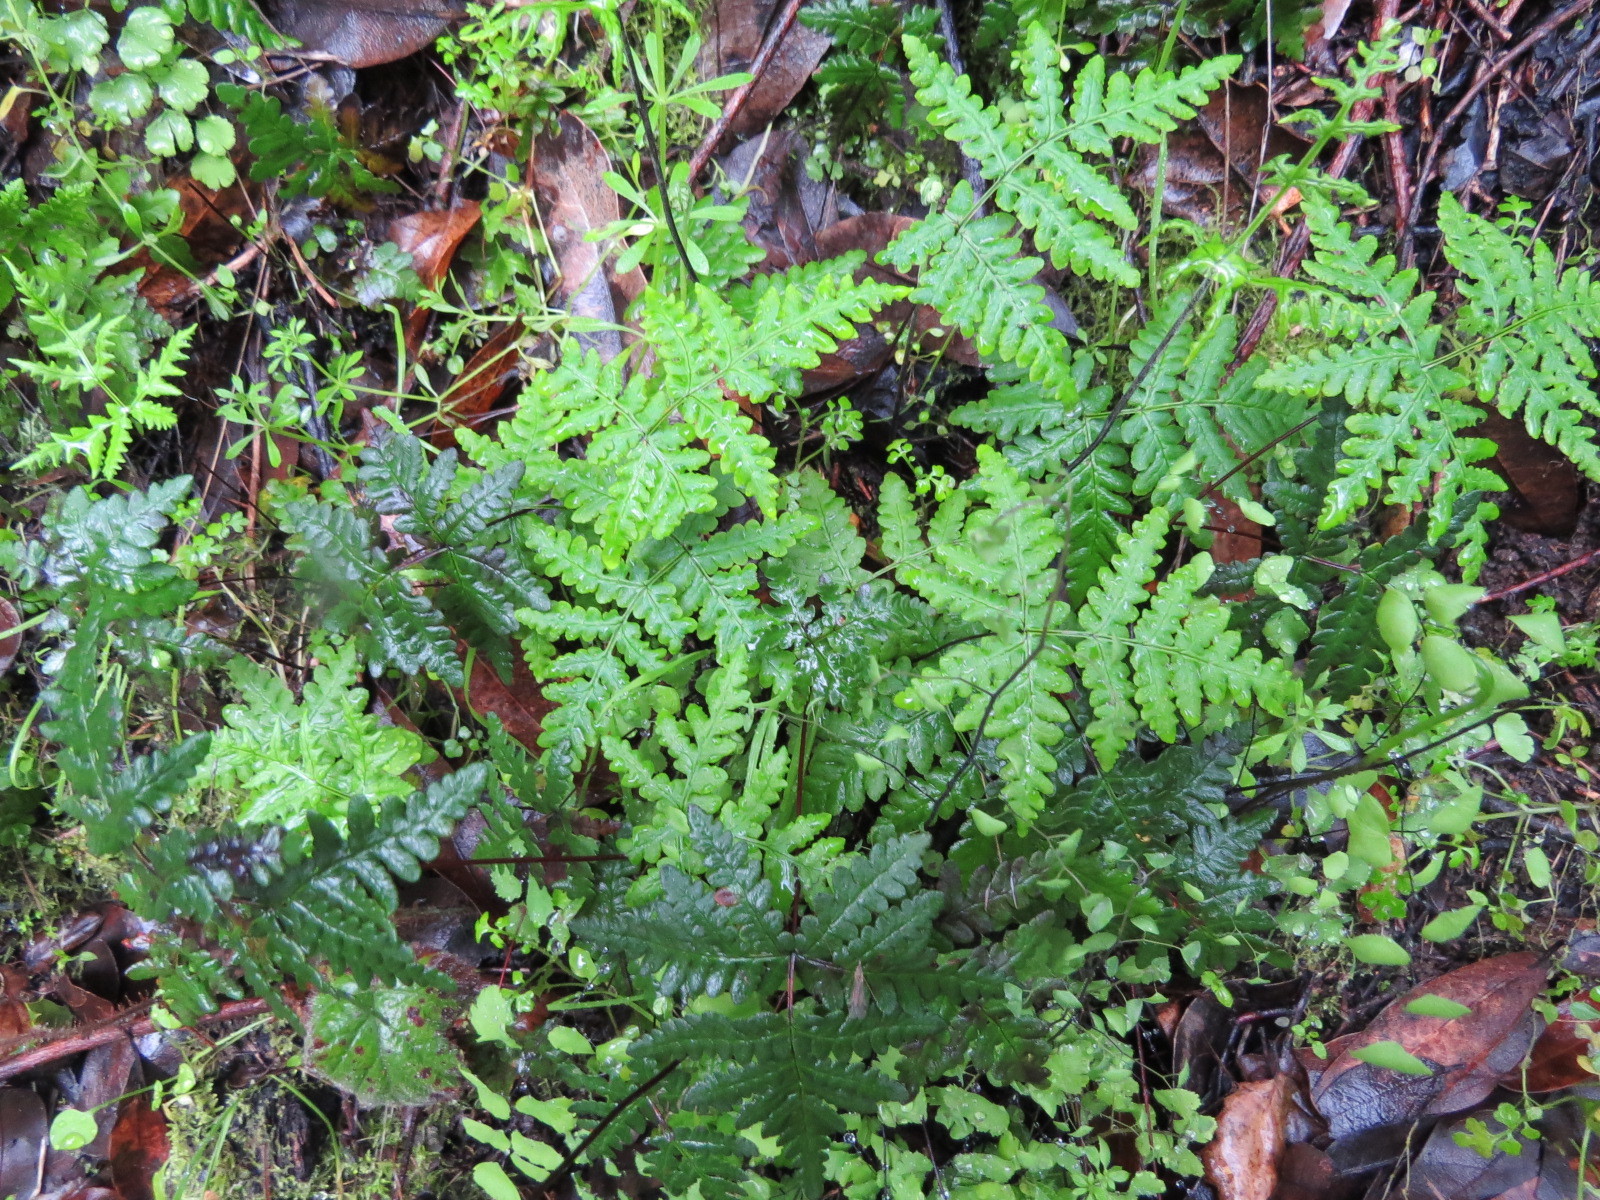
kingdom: Plantae
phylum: Tracheophyta
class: Polypodiopsida
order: Polypodiales
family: Pteridaceae
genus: Pentagramma
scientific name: Pentagramma triangularis
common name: Gold fern
